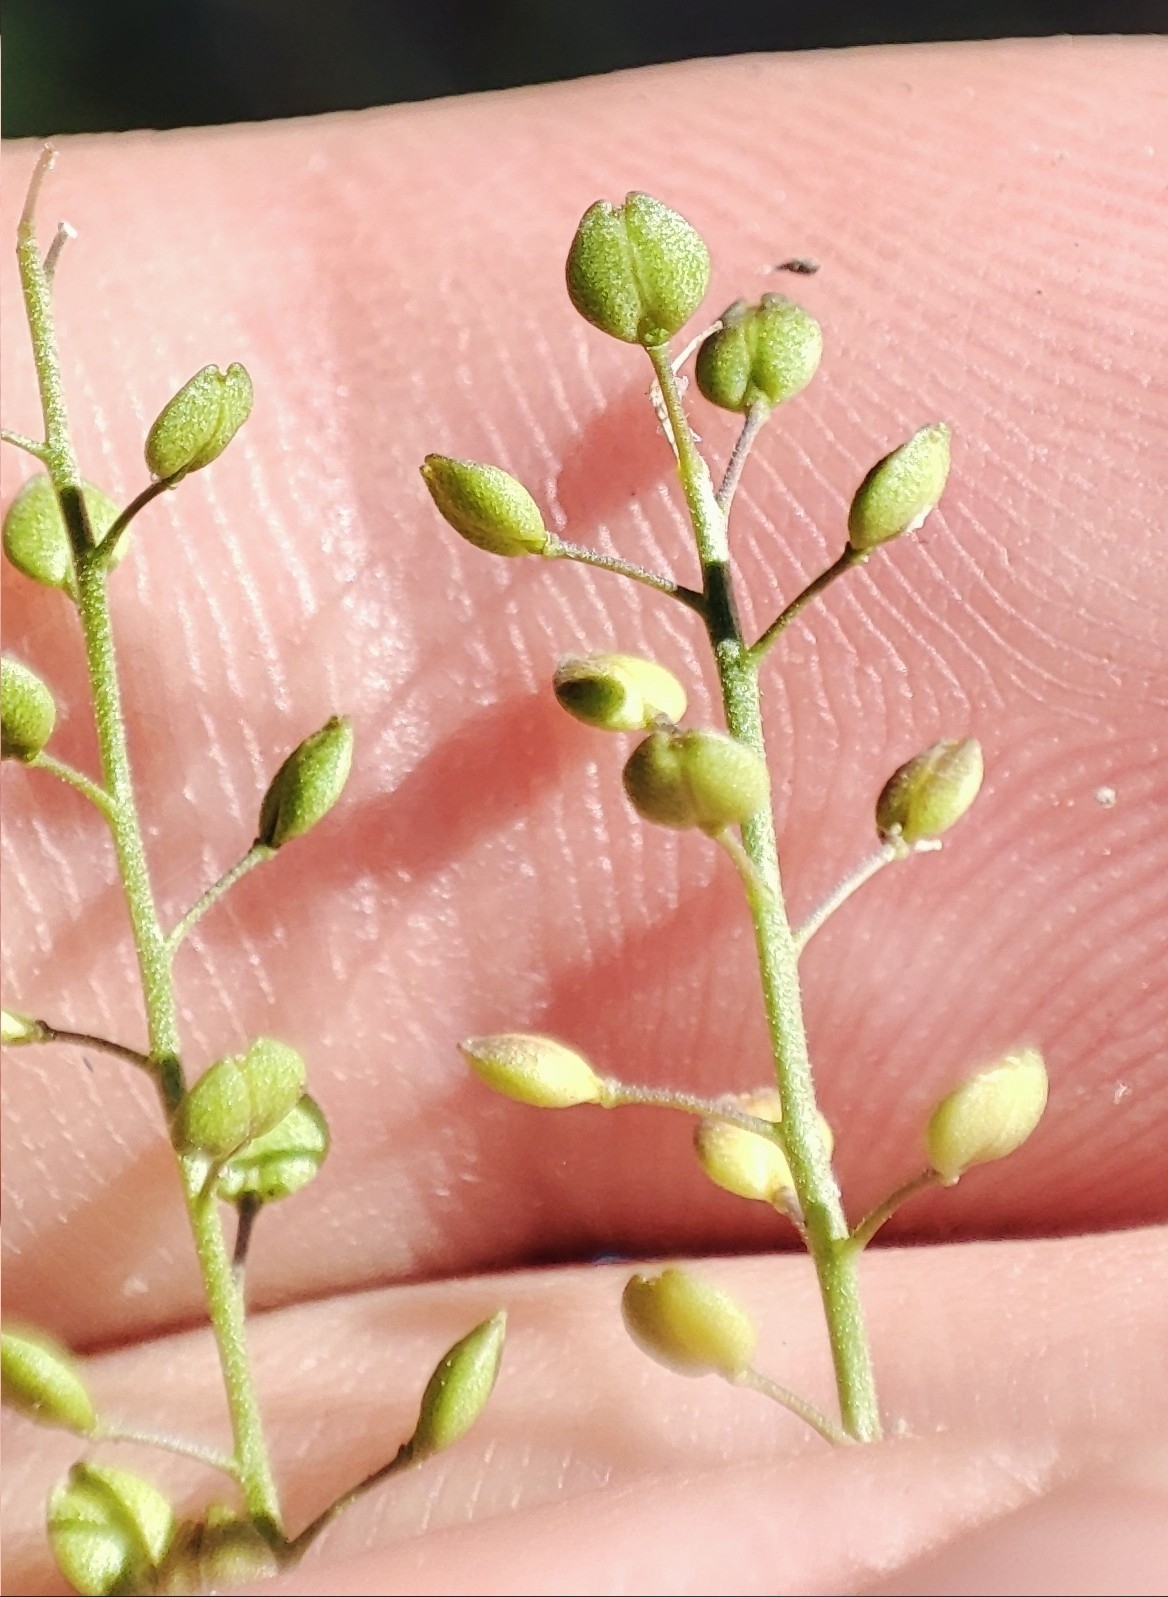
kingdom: Plantae
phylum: Tracheophyta
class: Magnoliopsida
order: Brassicales
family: Brassicaceae
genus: Lepidium
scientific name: Lepidium ruderale
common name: Narrow-leaved pepperwort
